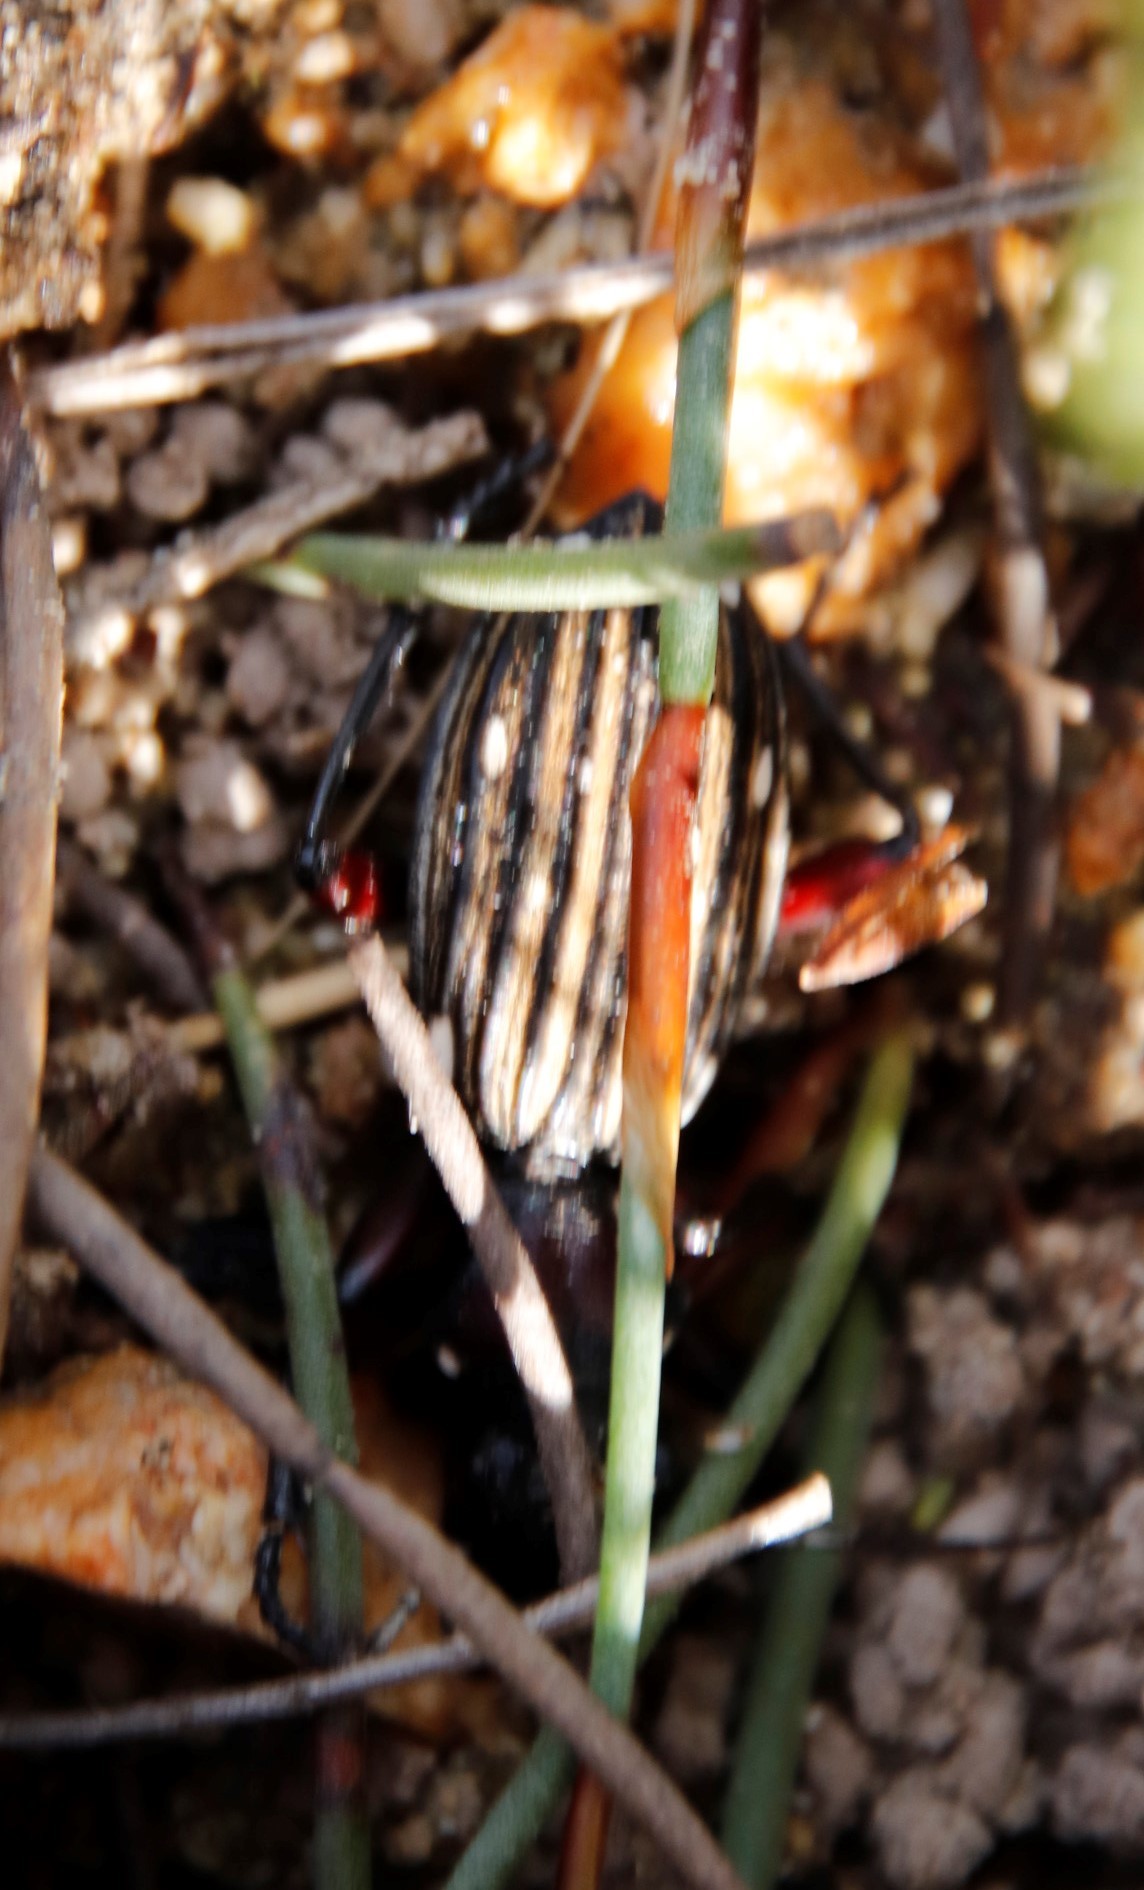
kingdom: Animalia
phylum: Arthropoda
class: Insecta
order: Coleoptera
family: Carabidae
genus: Anthia
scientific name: Anthia decemguttata
